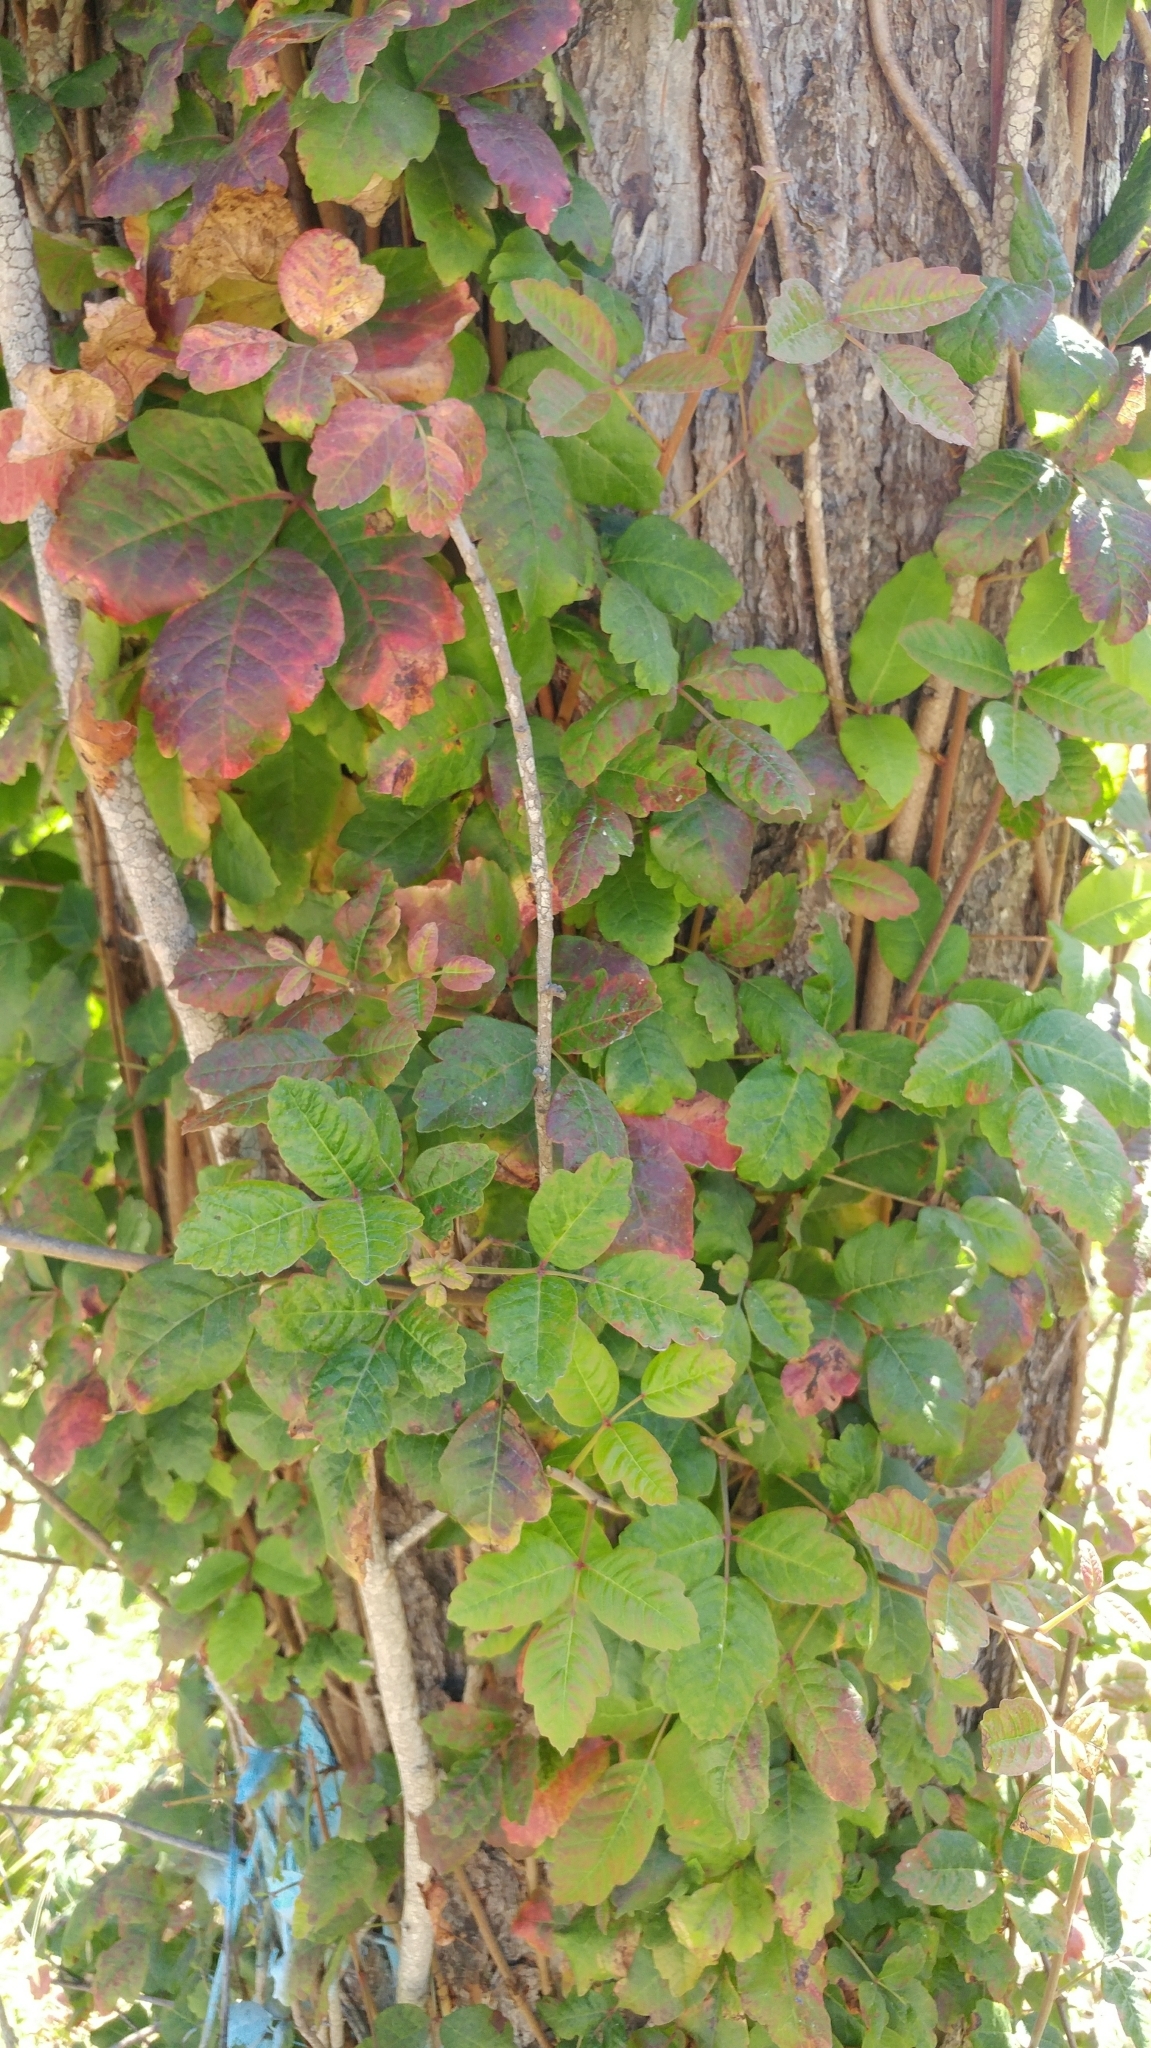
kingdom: Plantae
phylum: Tracheophyta
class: Magnoliopsida
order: Sapindales
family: Anacardiaceae
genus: Toxicodendron
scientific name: Toxicodendron diversilobum
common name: Pacific poison-oak
